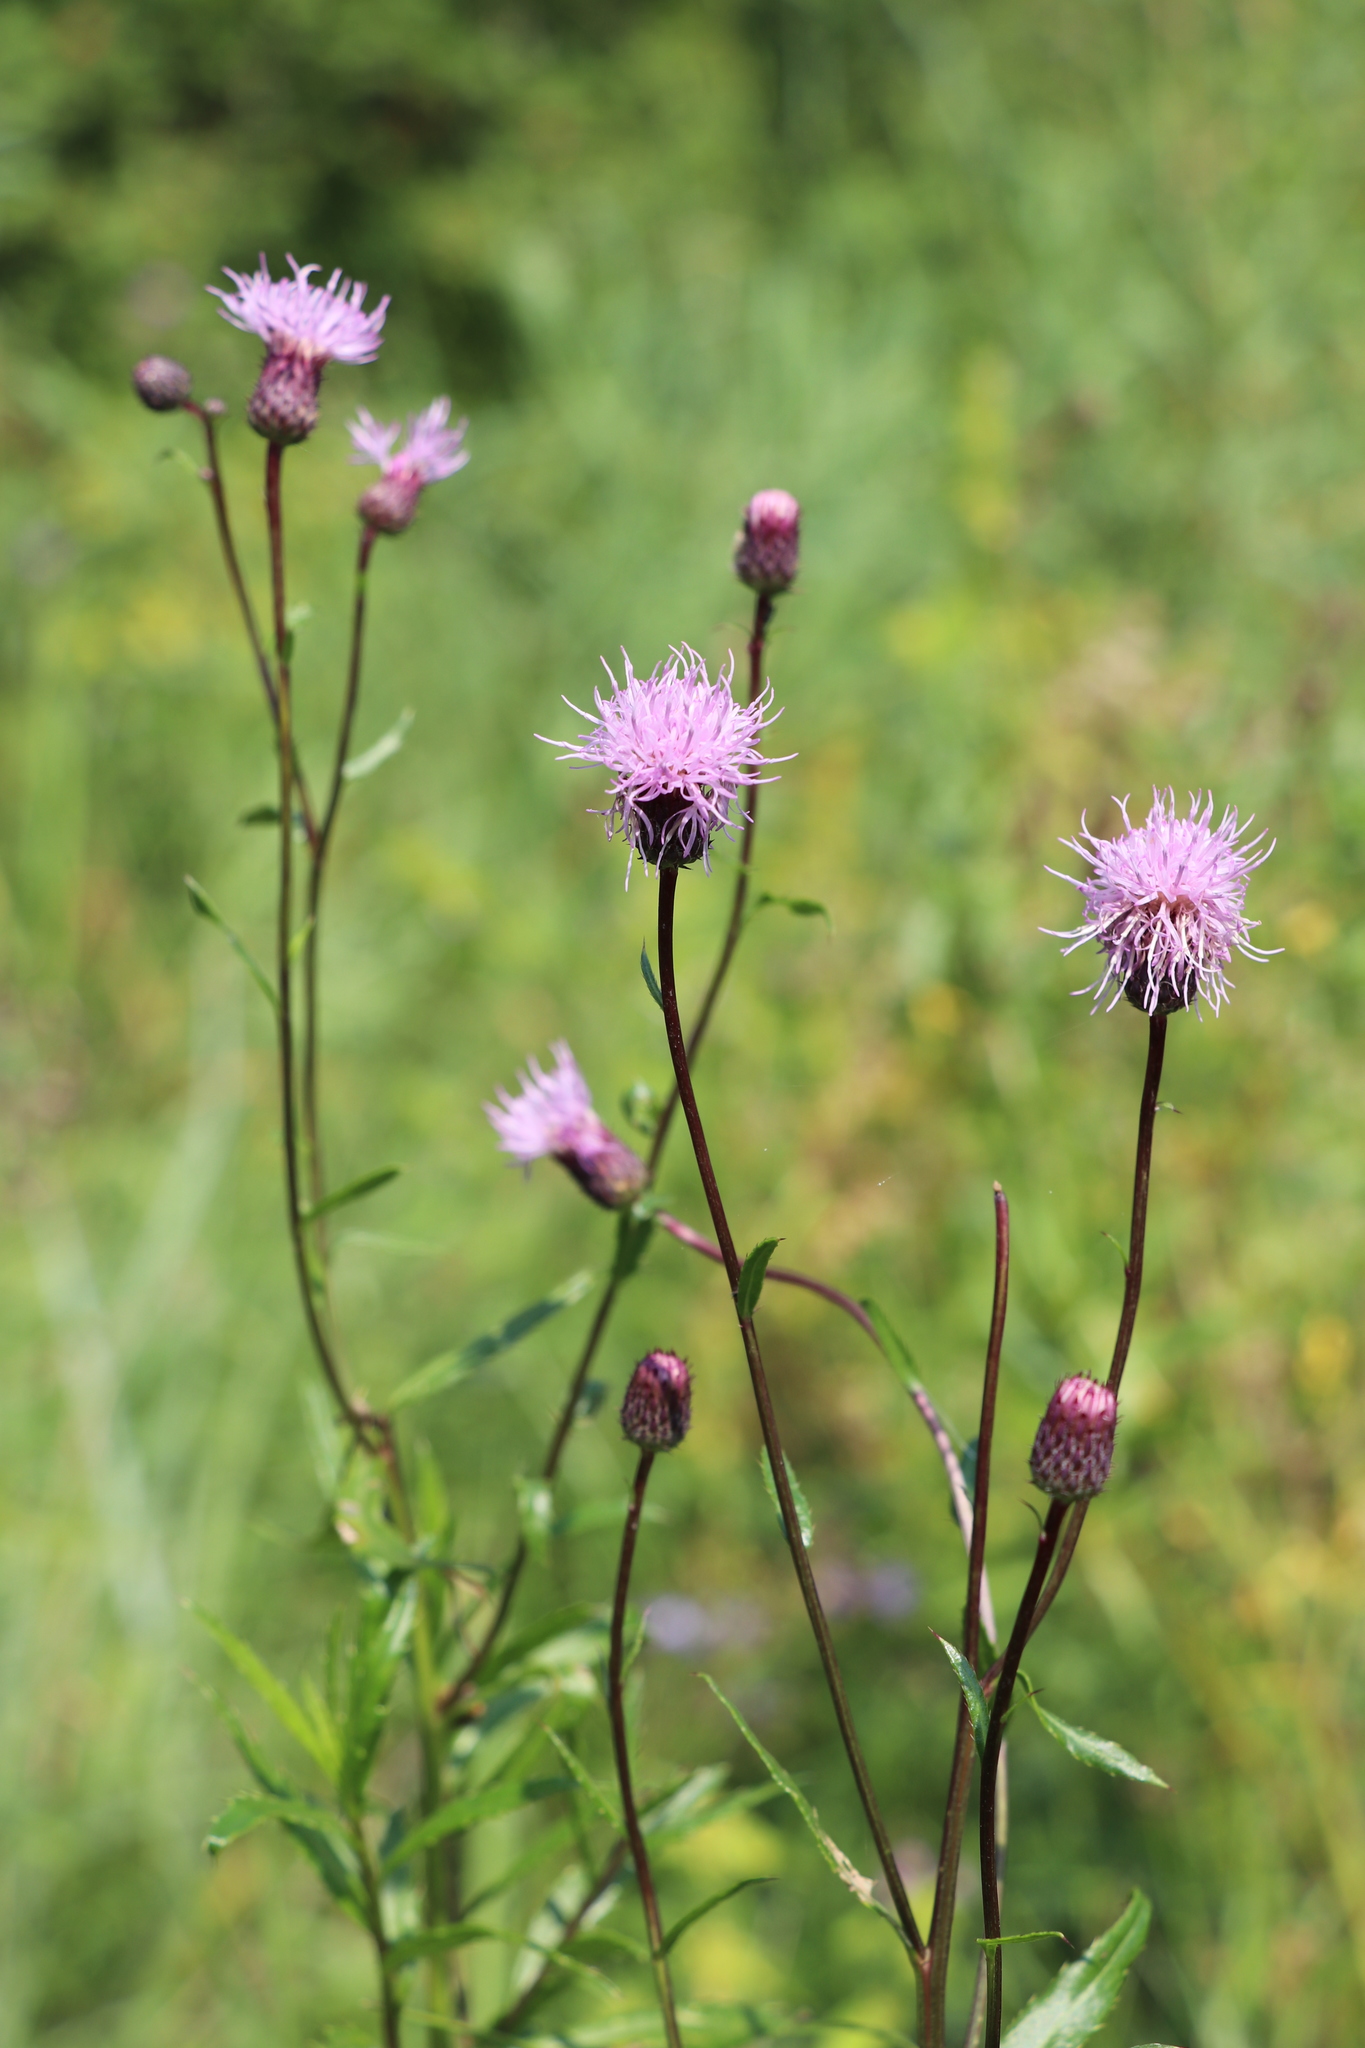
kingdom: Plantae
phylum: Tracheophyta
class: Magnoliopsida
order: Asterales
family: Asteraceae
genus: Cirsium
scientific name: Cirsium arvense
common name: Creeping thistle
